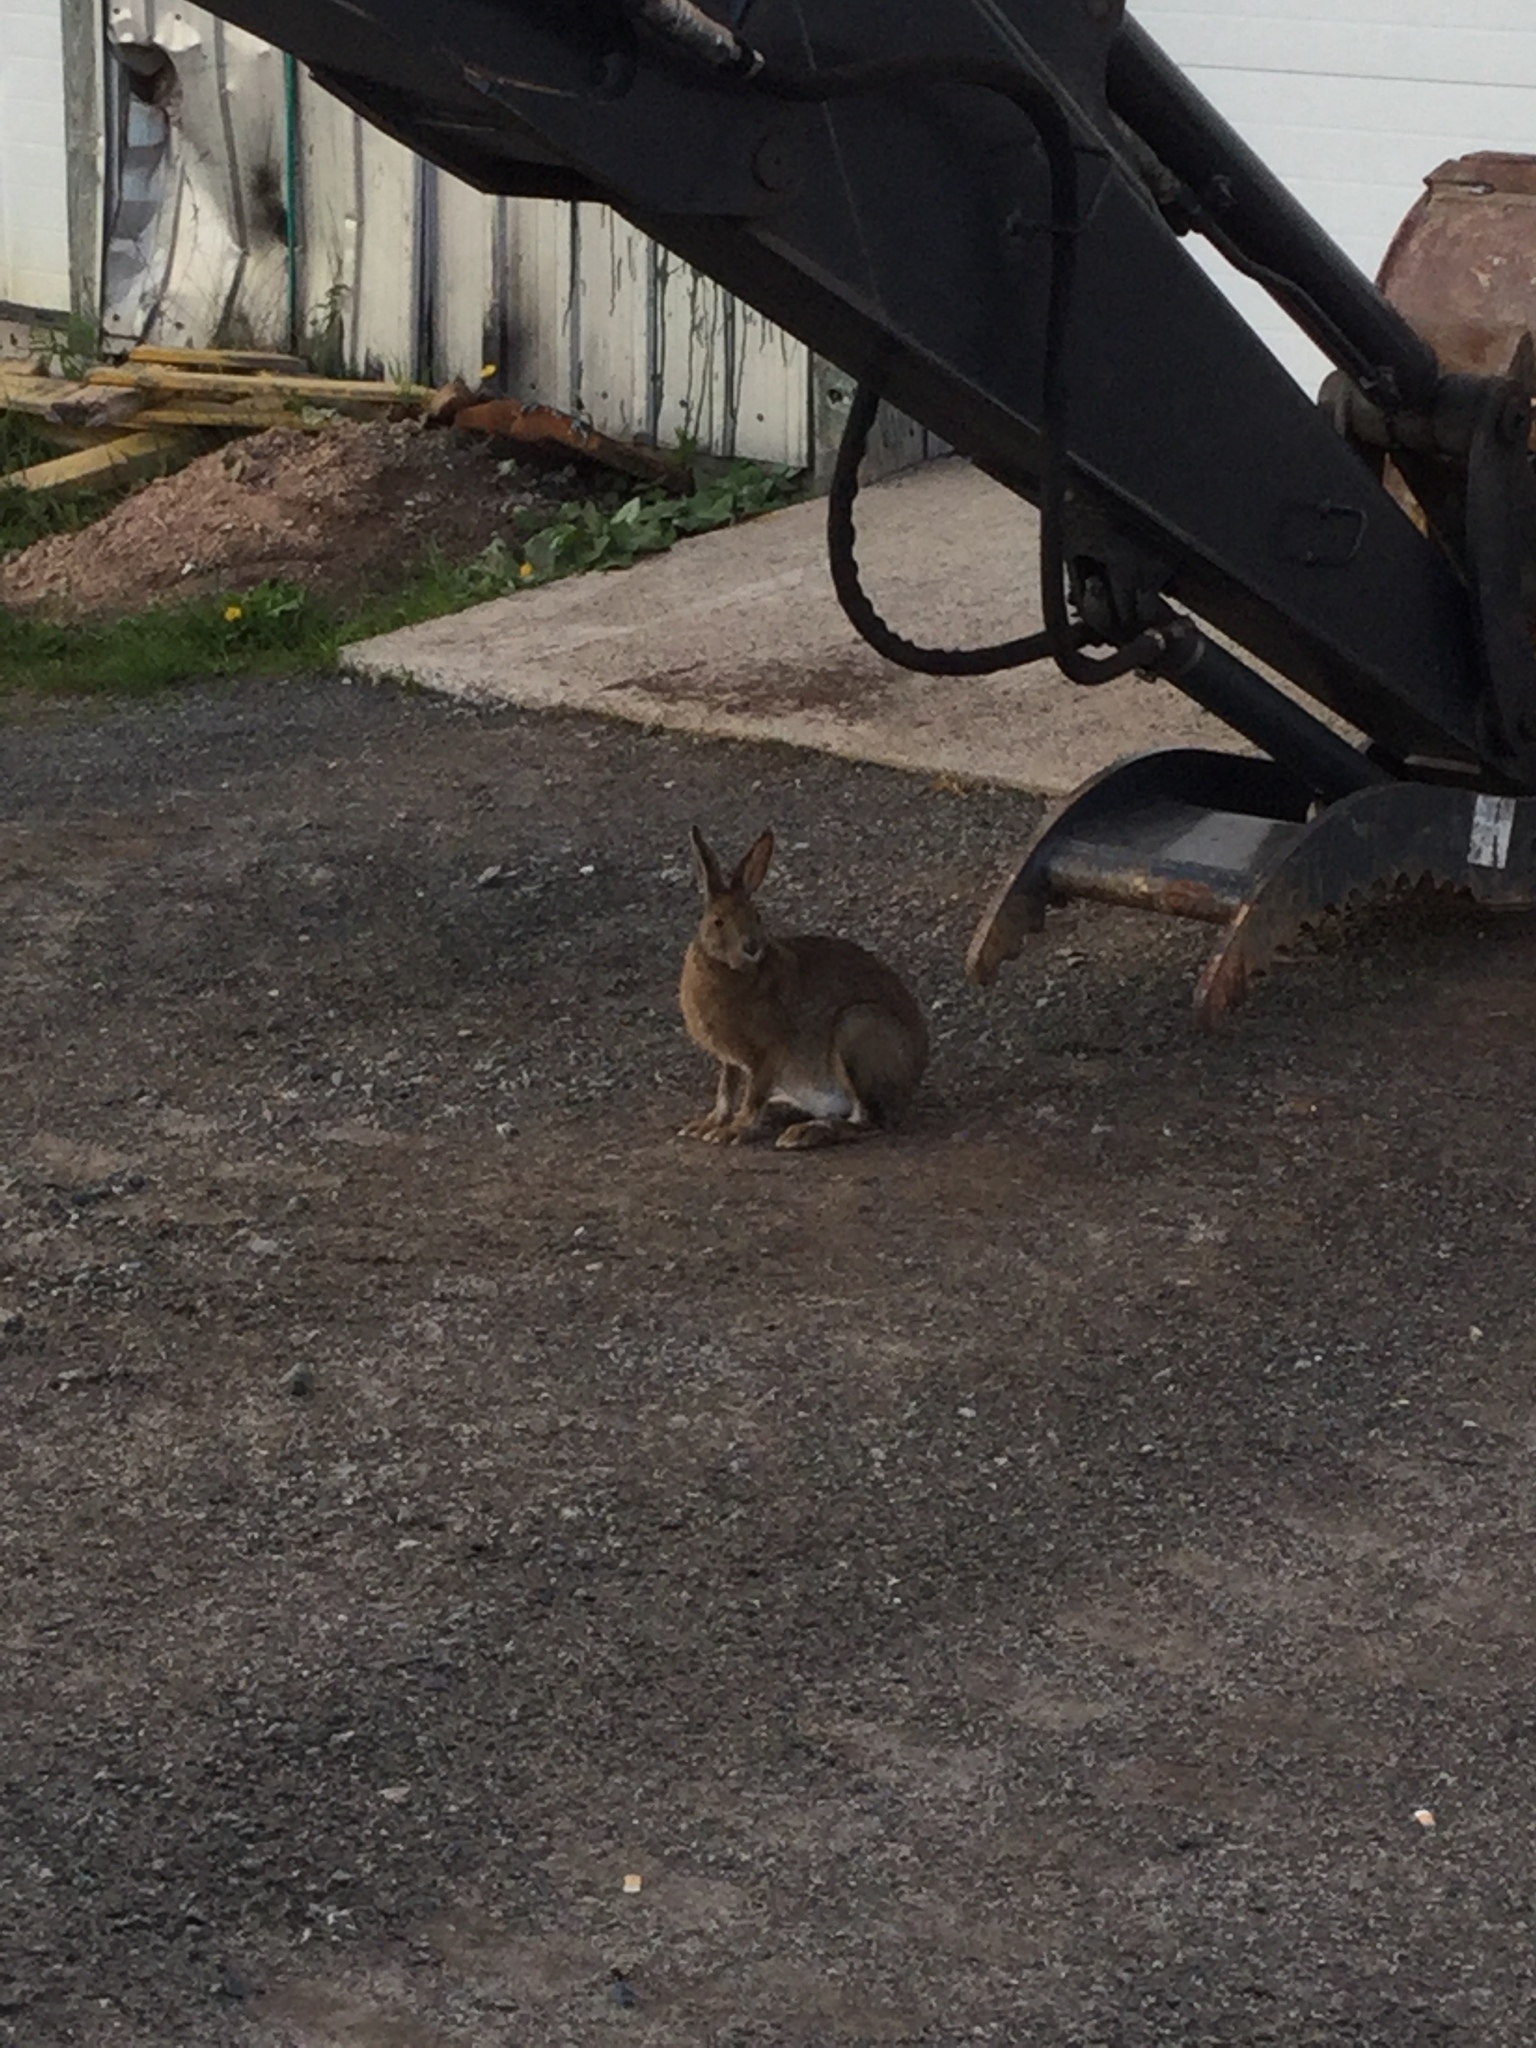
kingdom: Animalia
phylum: Chordata
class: Mammalia
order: Lagomorpha
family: Leporidae
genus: Lepus
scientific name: Lepus americanus
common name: Snowshoe hare
